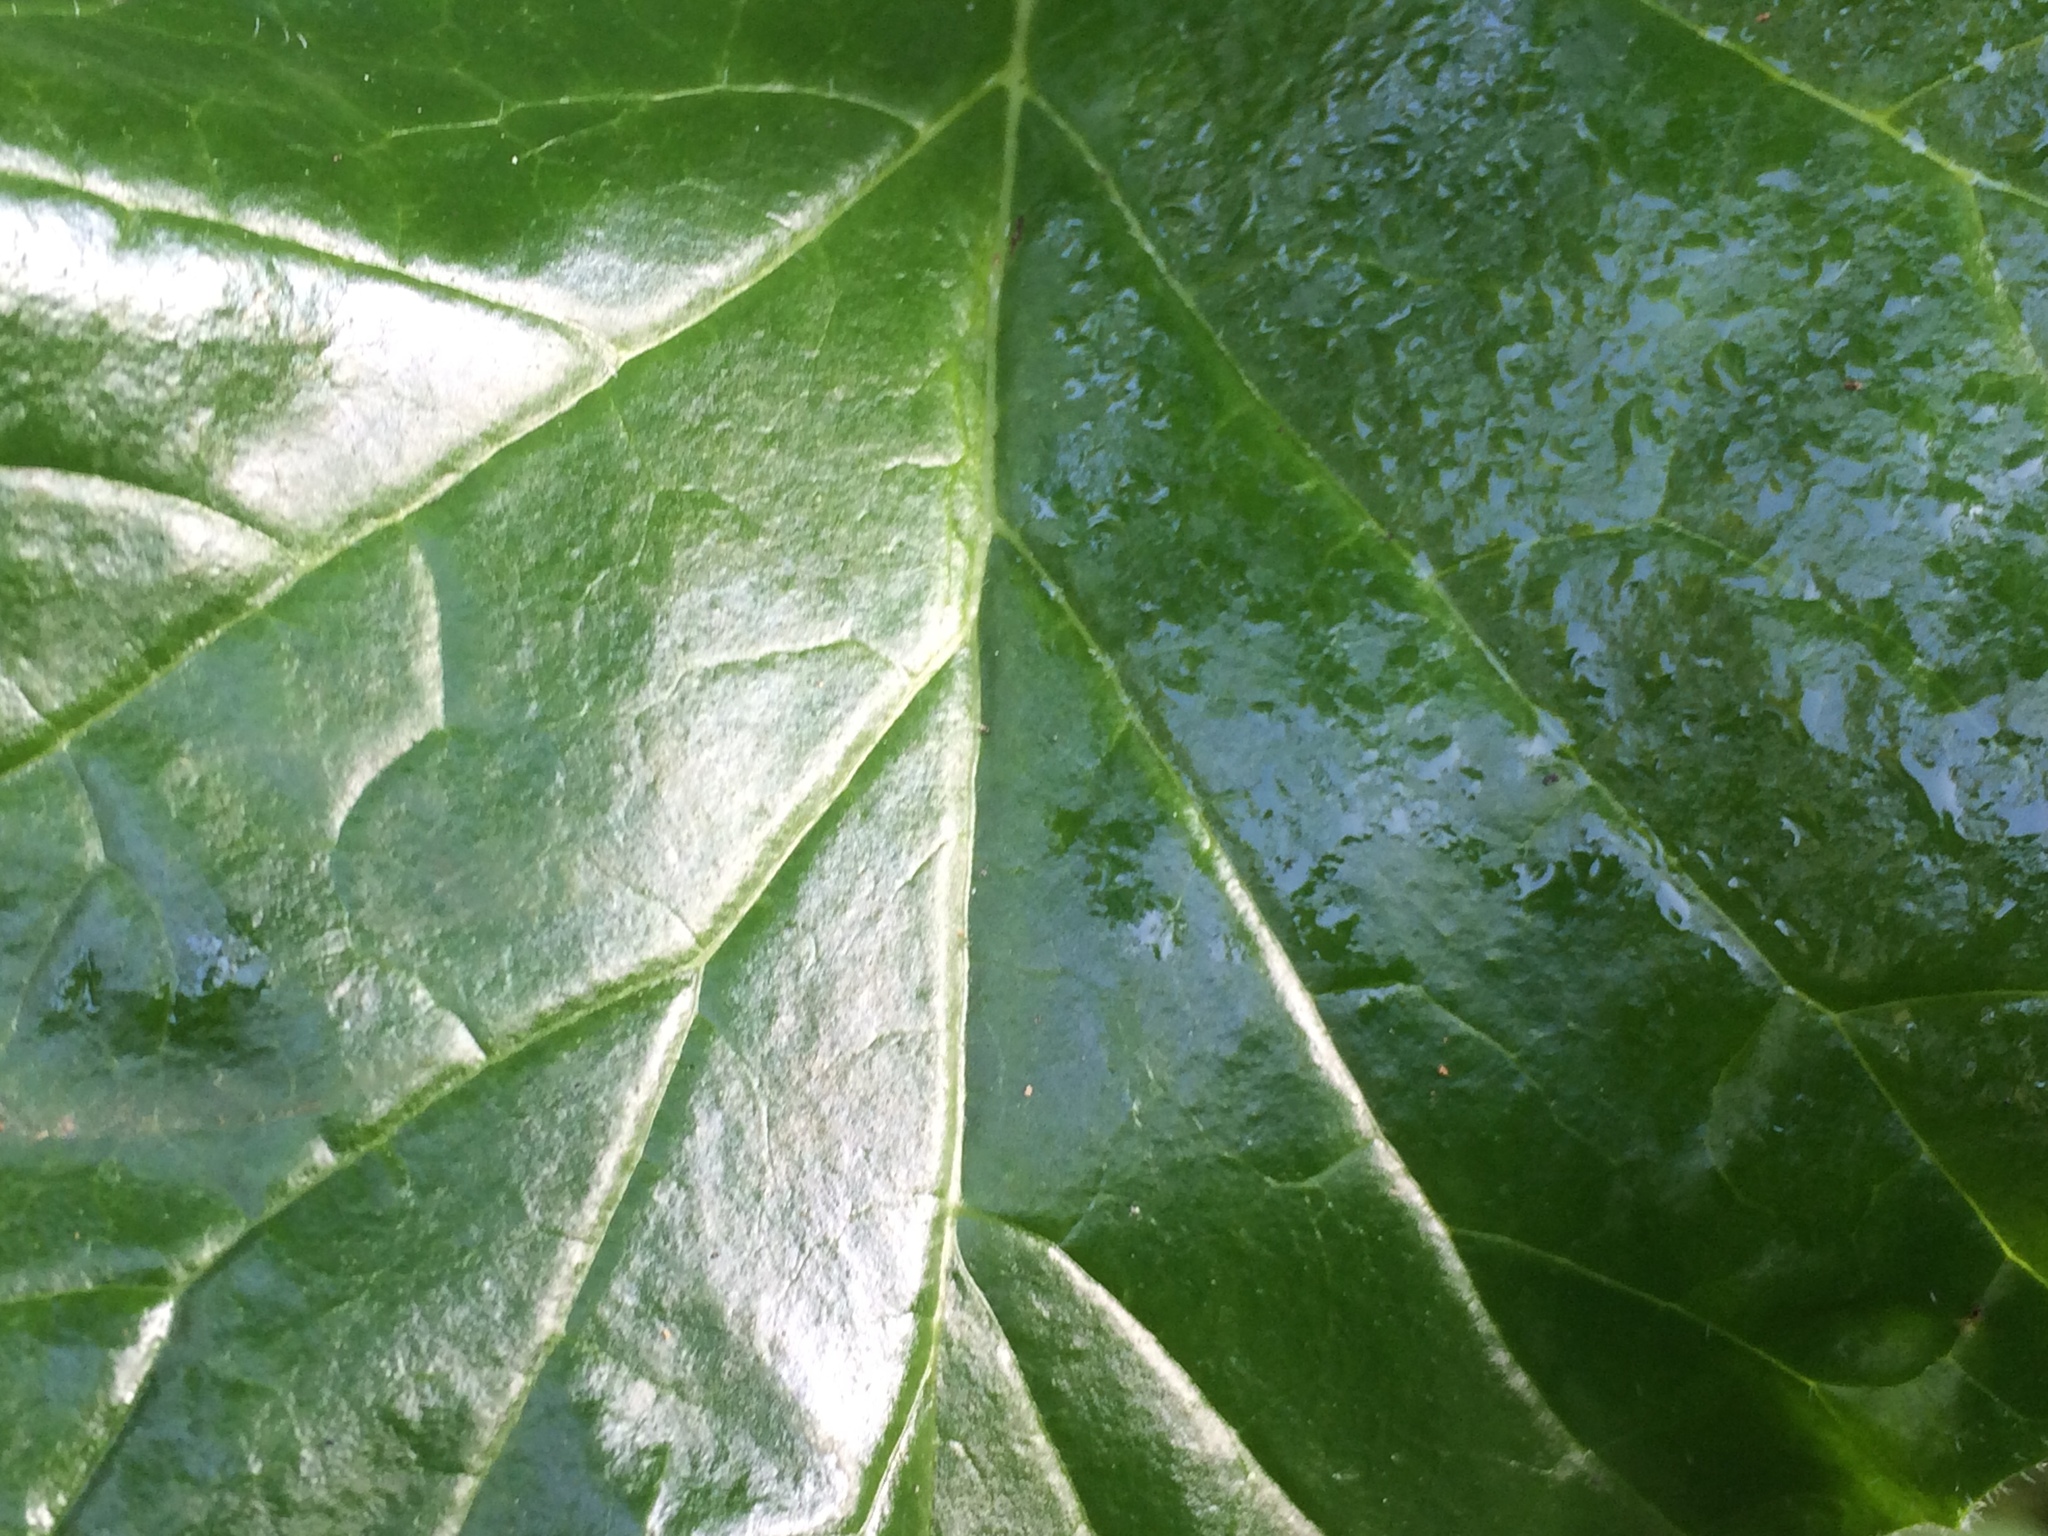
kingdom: Plantae
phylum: Tracheophyta
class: Magnoliopsida
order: Lamiales
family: Acanthaceae
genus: Acanthus
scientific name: Acanthus mollis
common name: Bear's-breech
